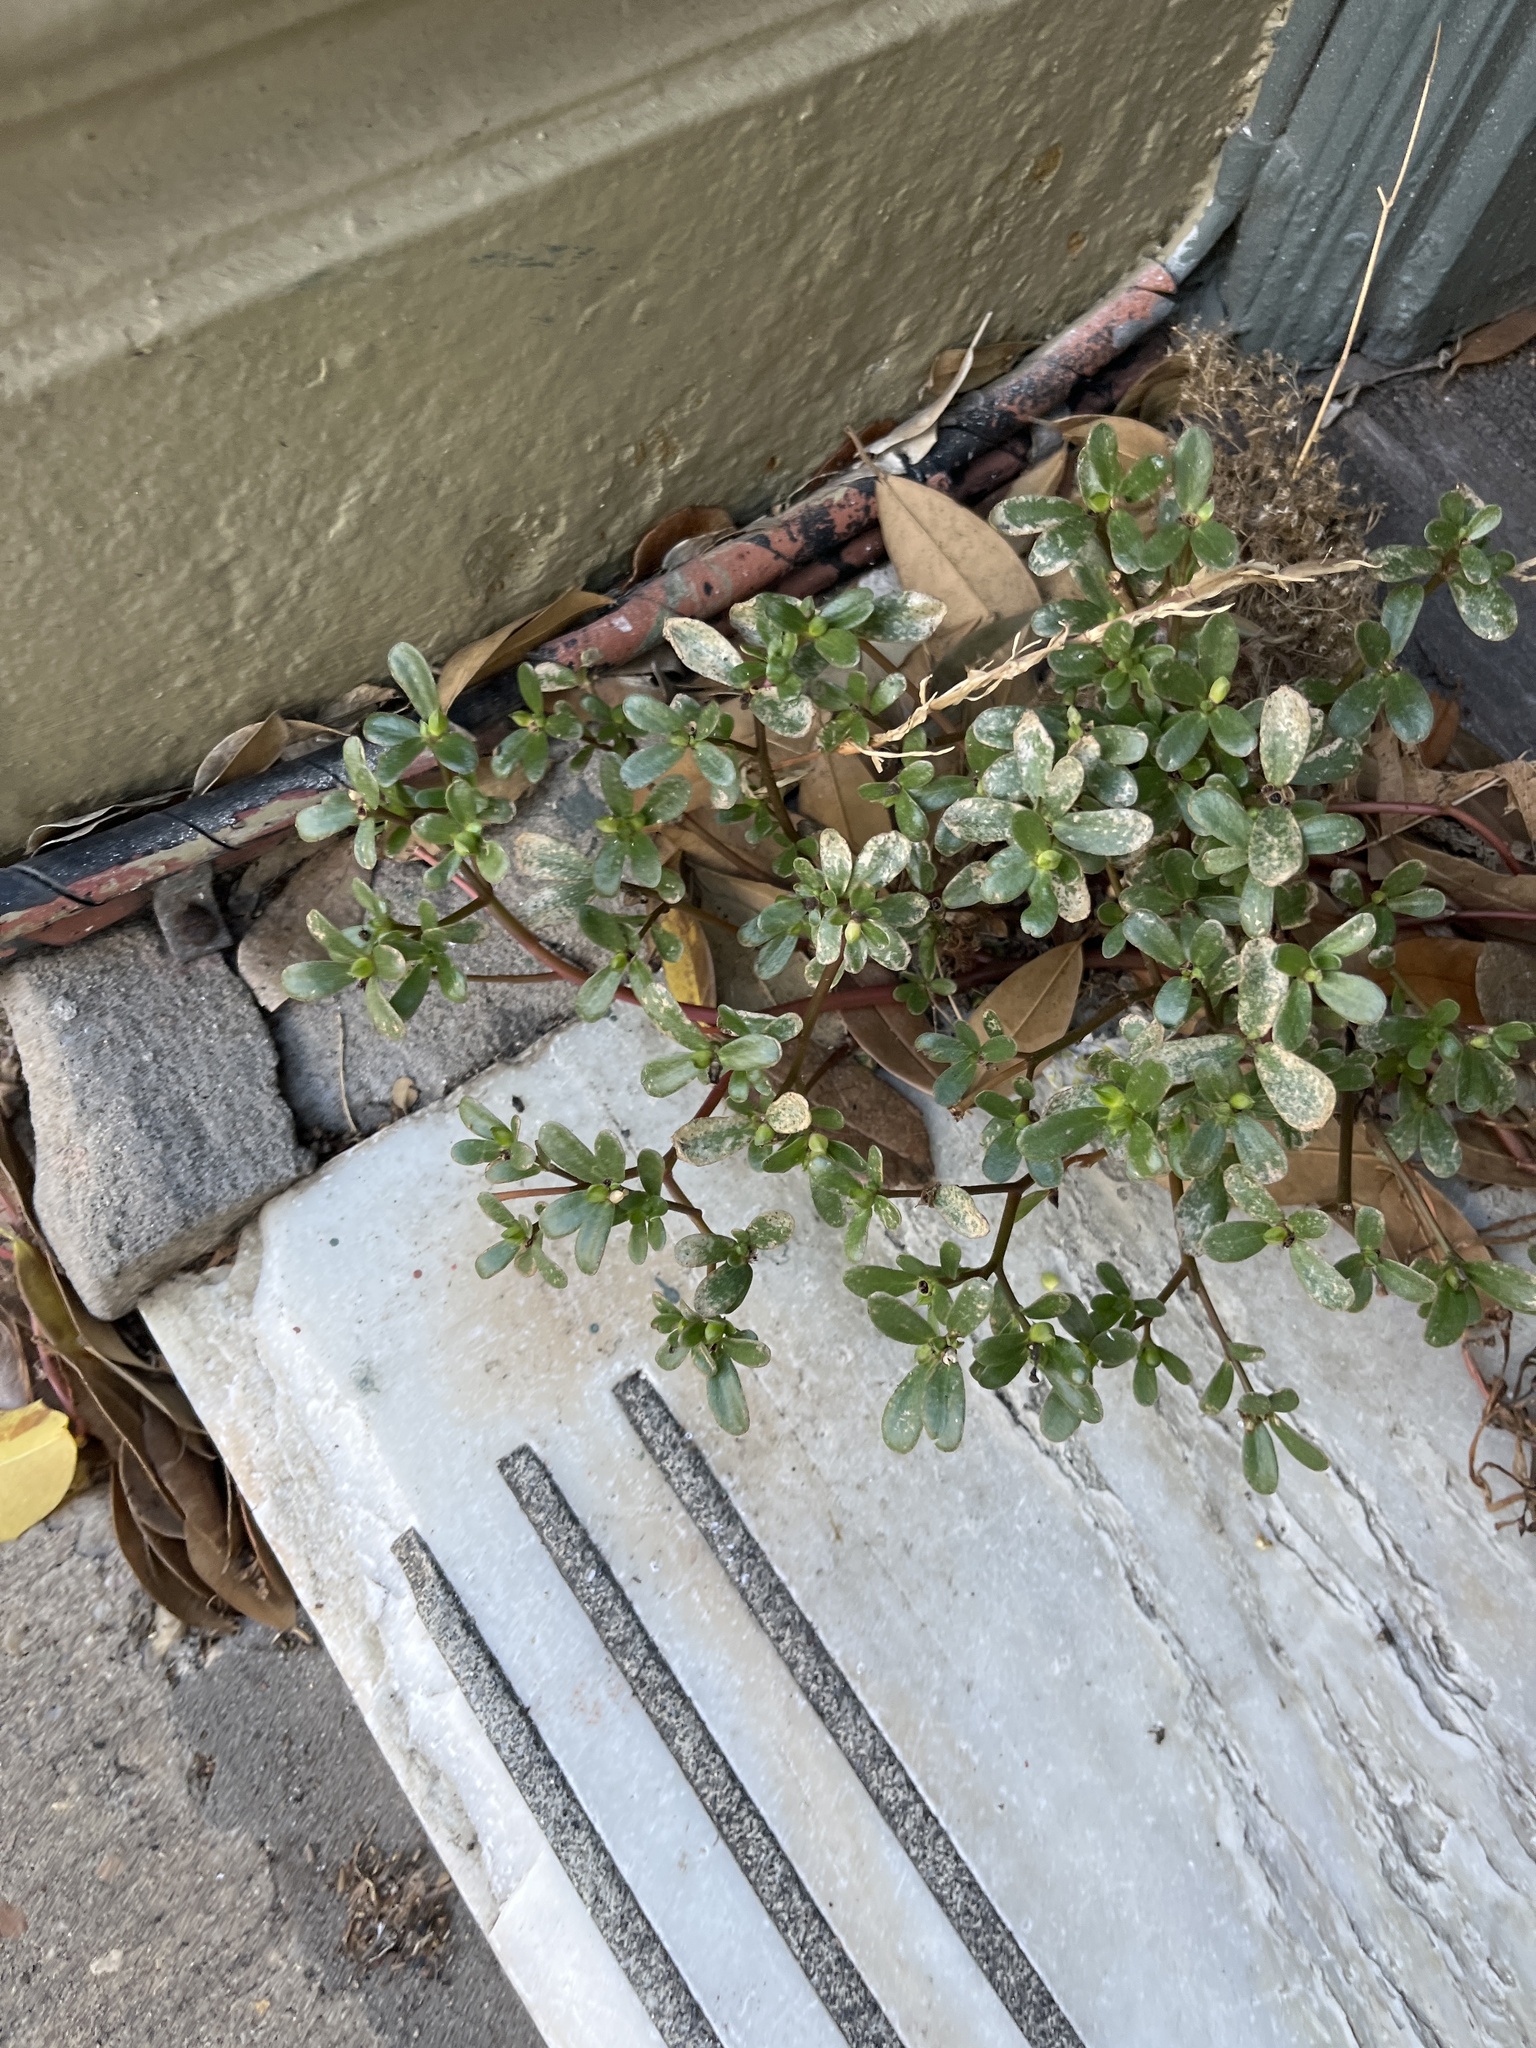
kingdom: Plantae
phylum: Tracheophyta
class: Magnoliopsida
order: Caryophyllales
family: Portulacaceae
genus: Portulaca
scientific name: Portulaca oleracea
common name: Common purslane
